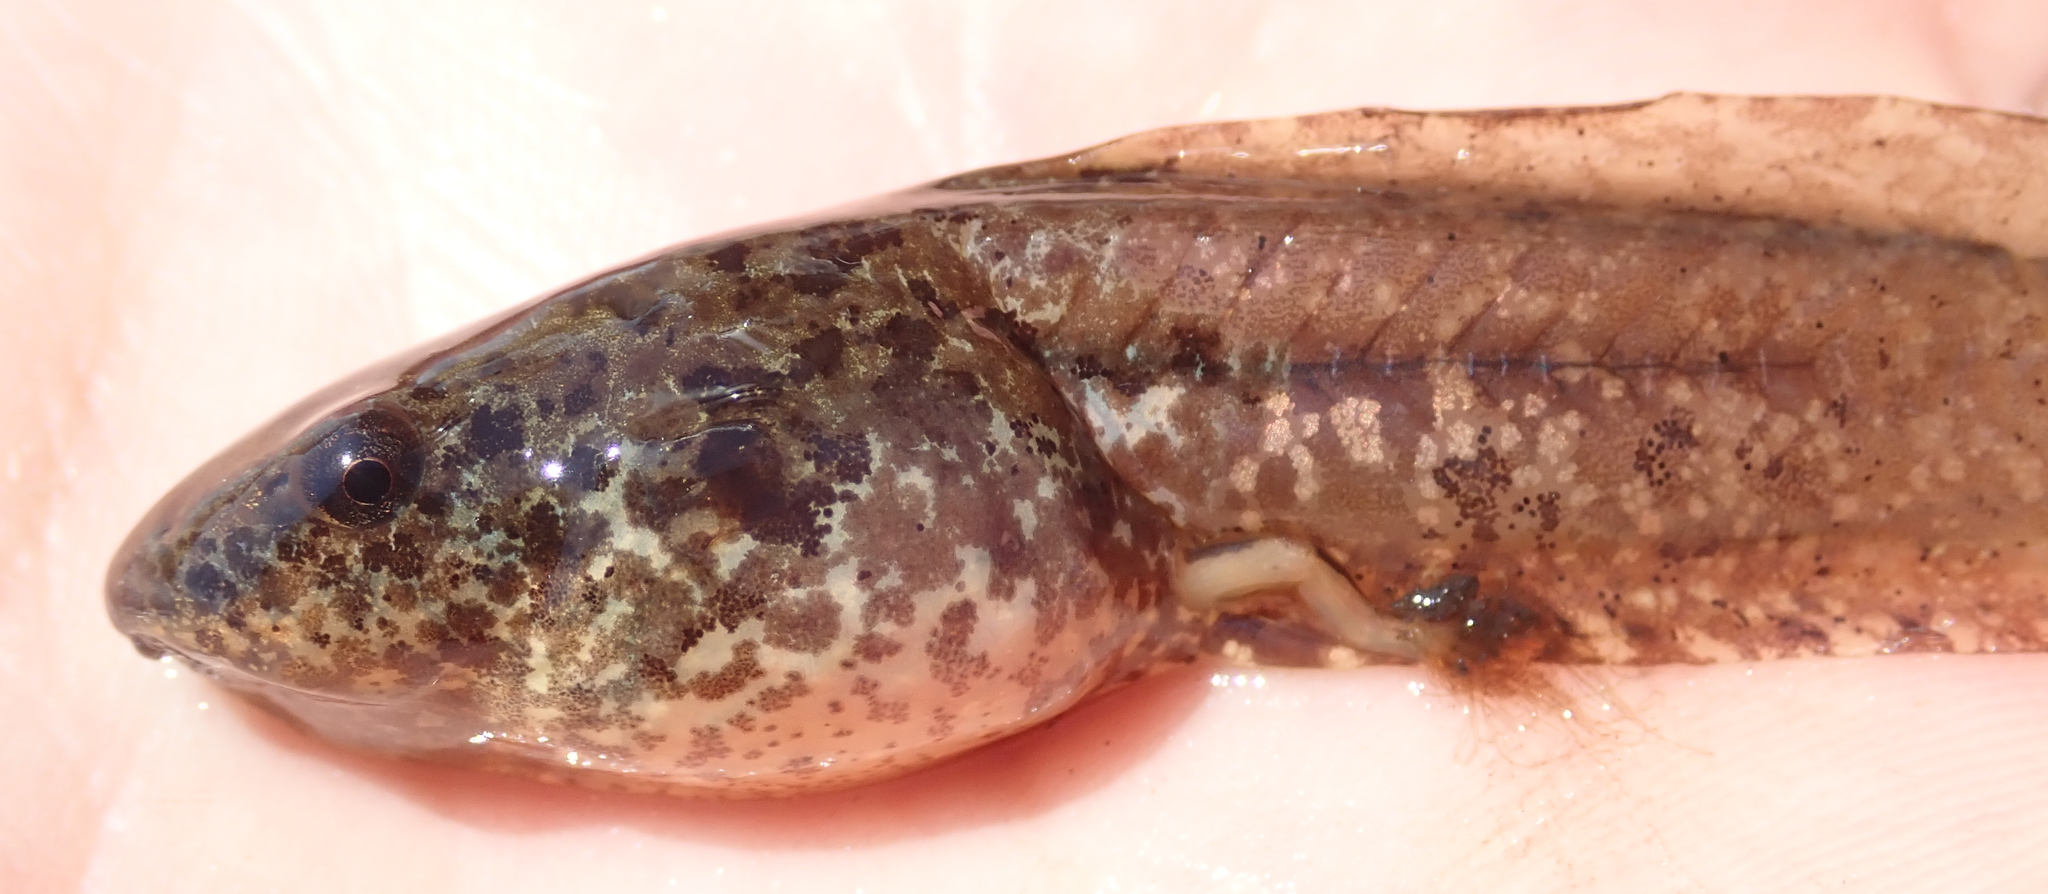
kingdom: Animalia
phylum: Chordata
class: Amphibia
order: Anura
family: Hyperoliidae
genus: Hyperolius
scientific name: Hyperolius parallelus
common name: Angolan reed frog
